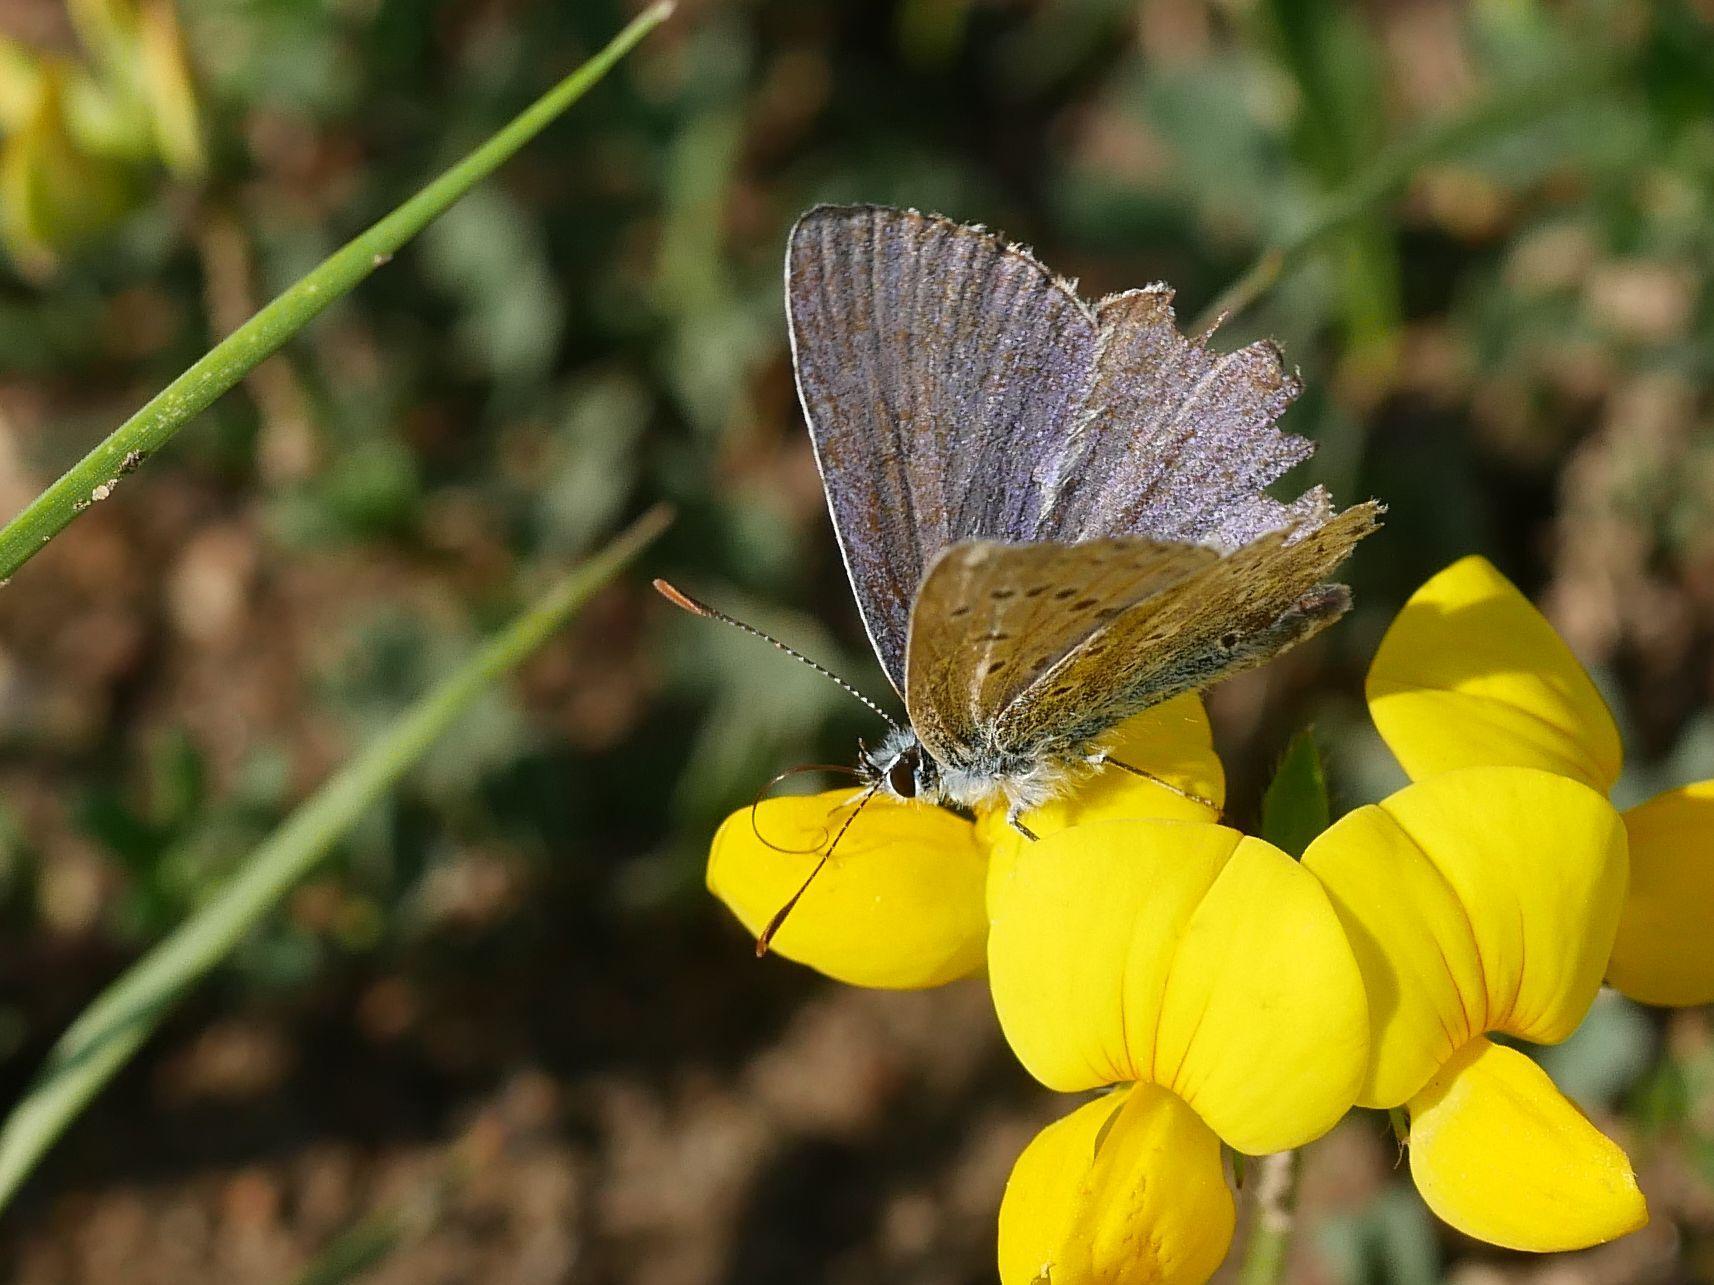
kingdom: Animalia
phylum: Arthropoda
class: Insecta
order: Lepidoptera
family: Lycaenidae
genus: Polyommatus
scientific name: Polyommatus icarus
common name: Common blue
